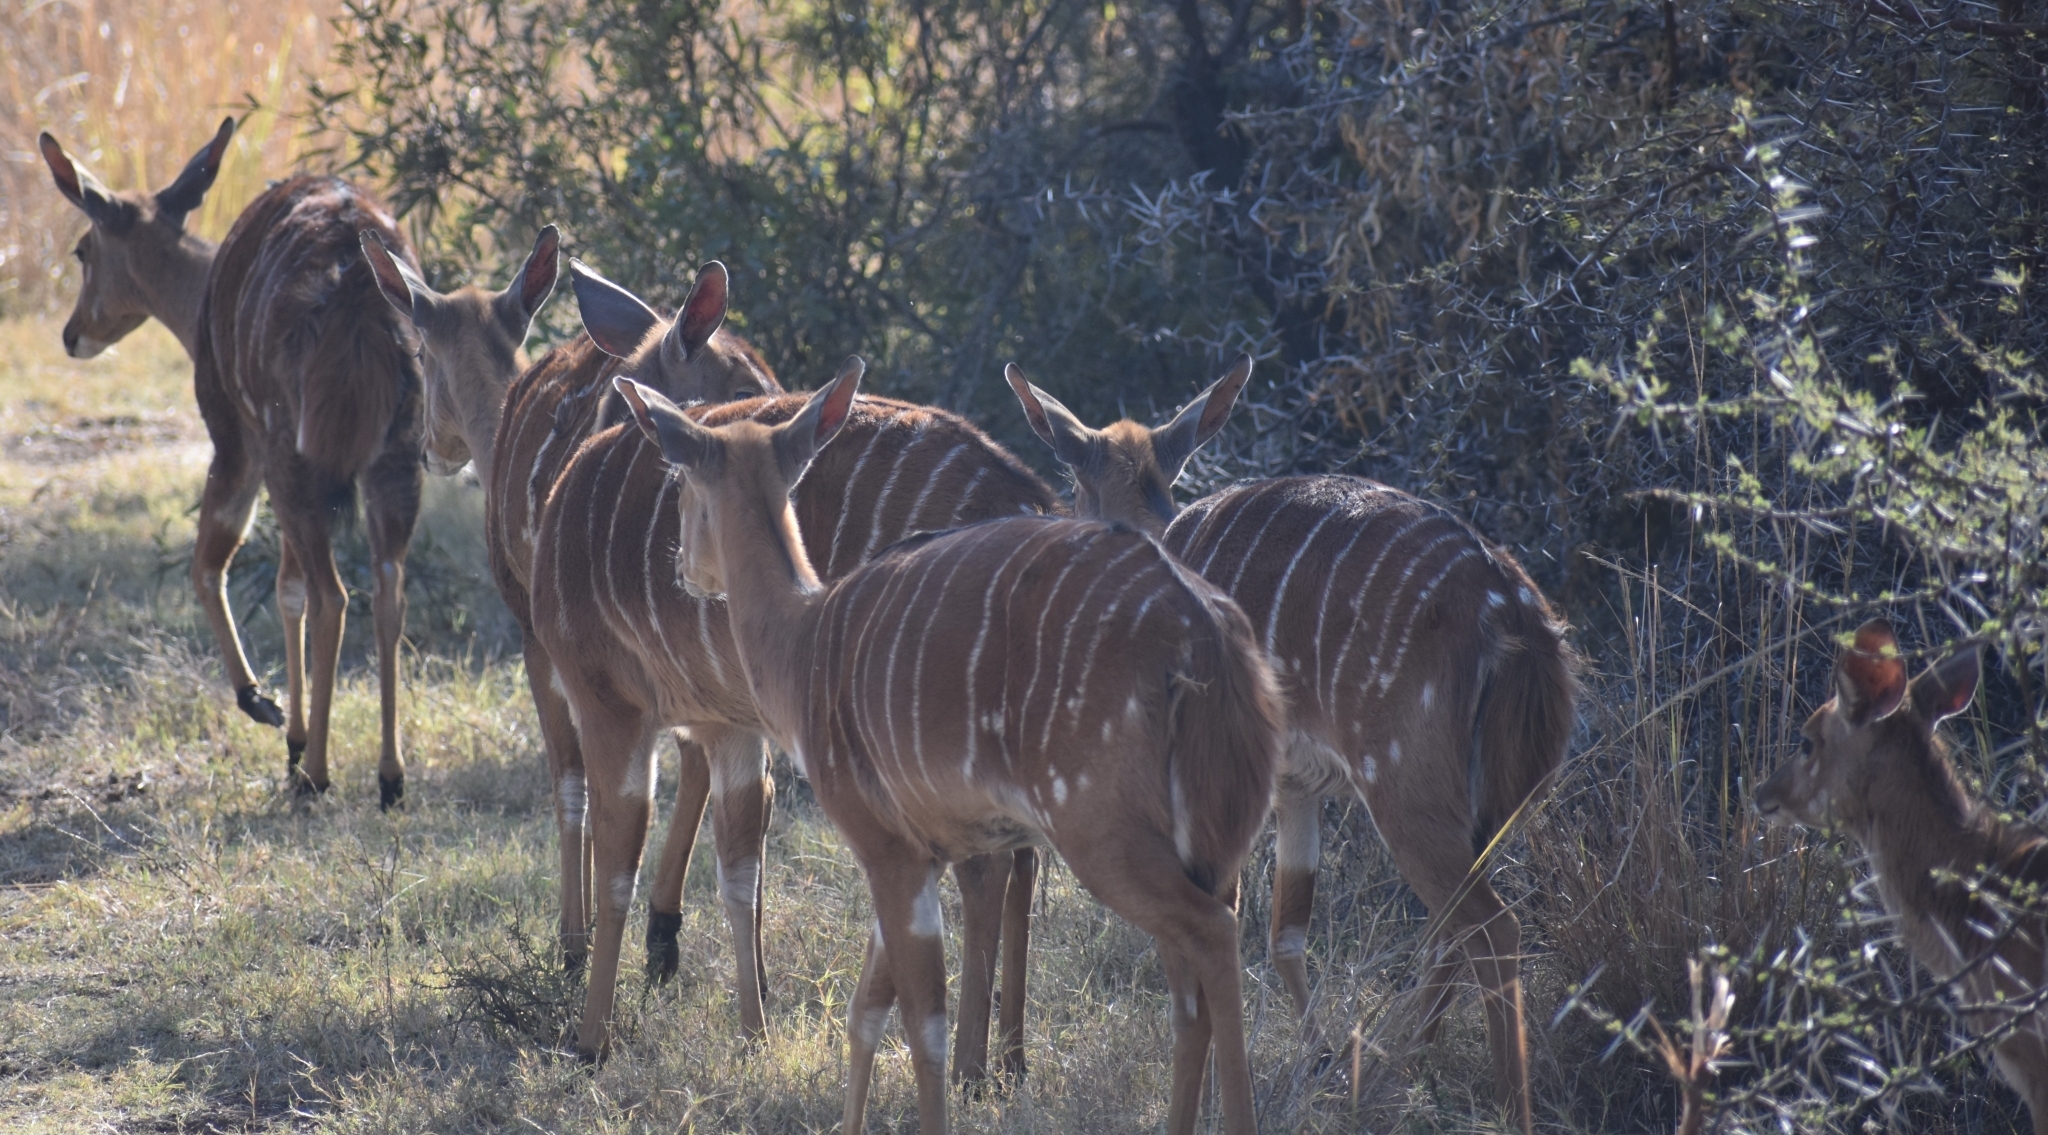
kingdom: Animalia
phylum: Chordata
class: Mammalia
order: Artiodactyla
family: Bovidae
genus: Tragelaphus
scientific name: Tragelaphus angasii
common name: Nyala
